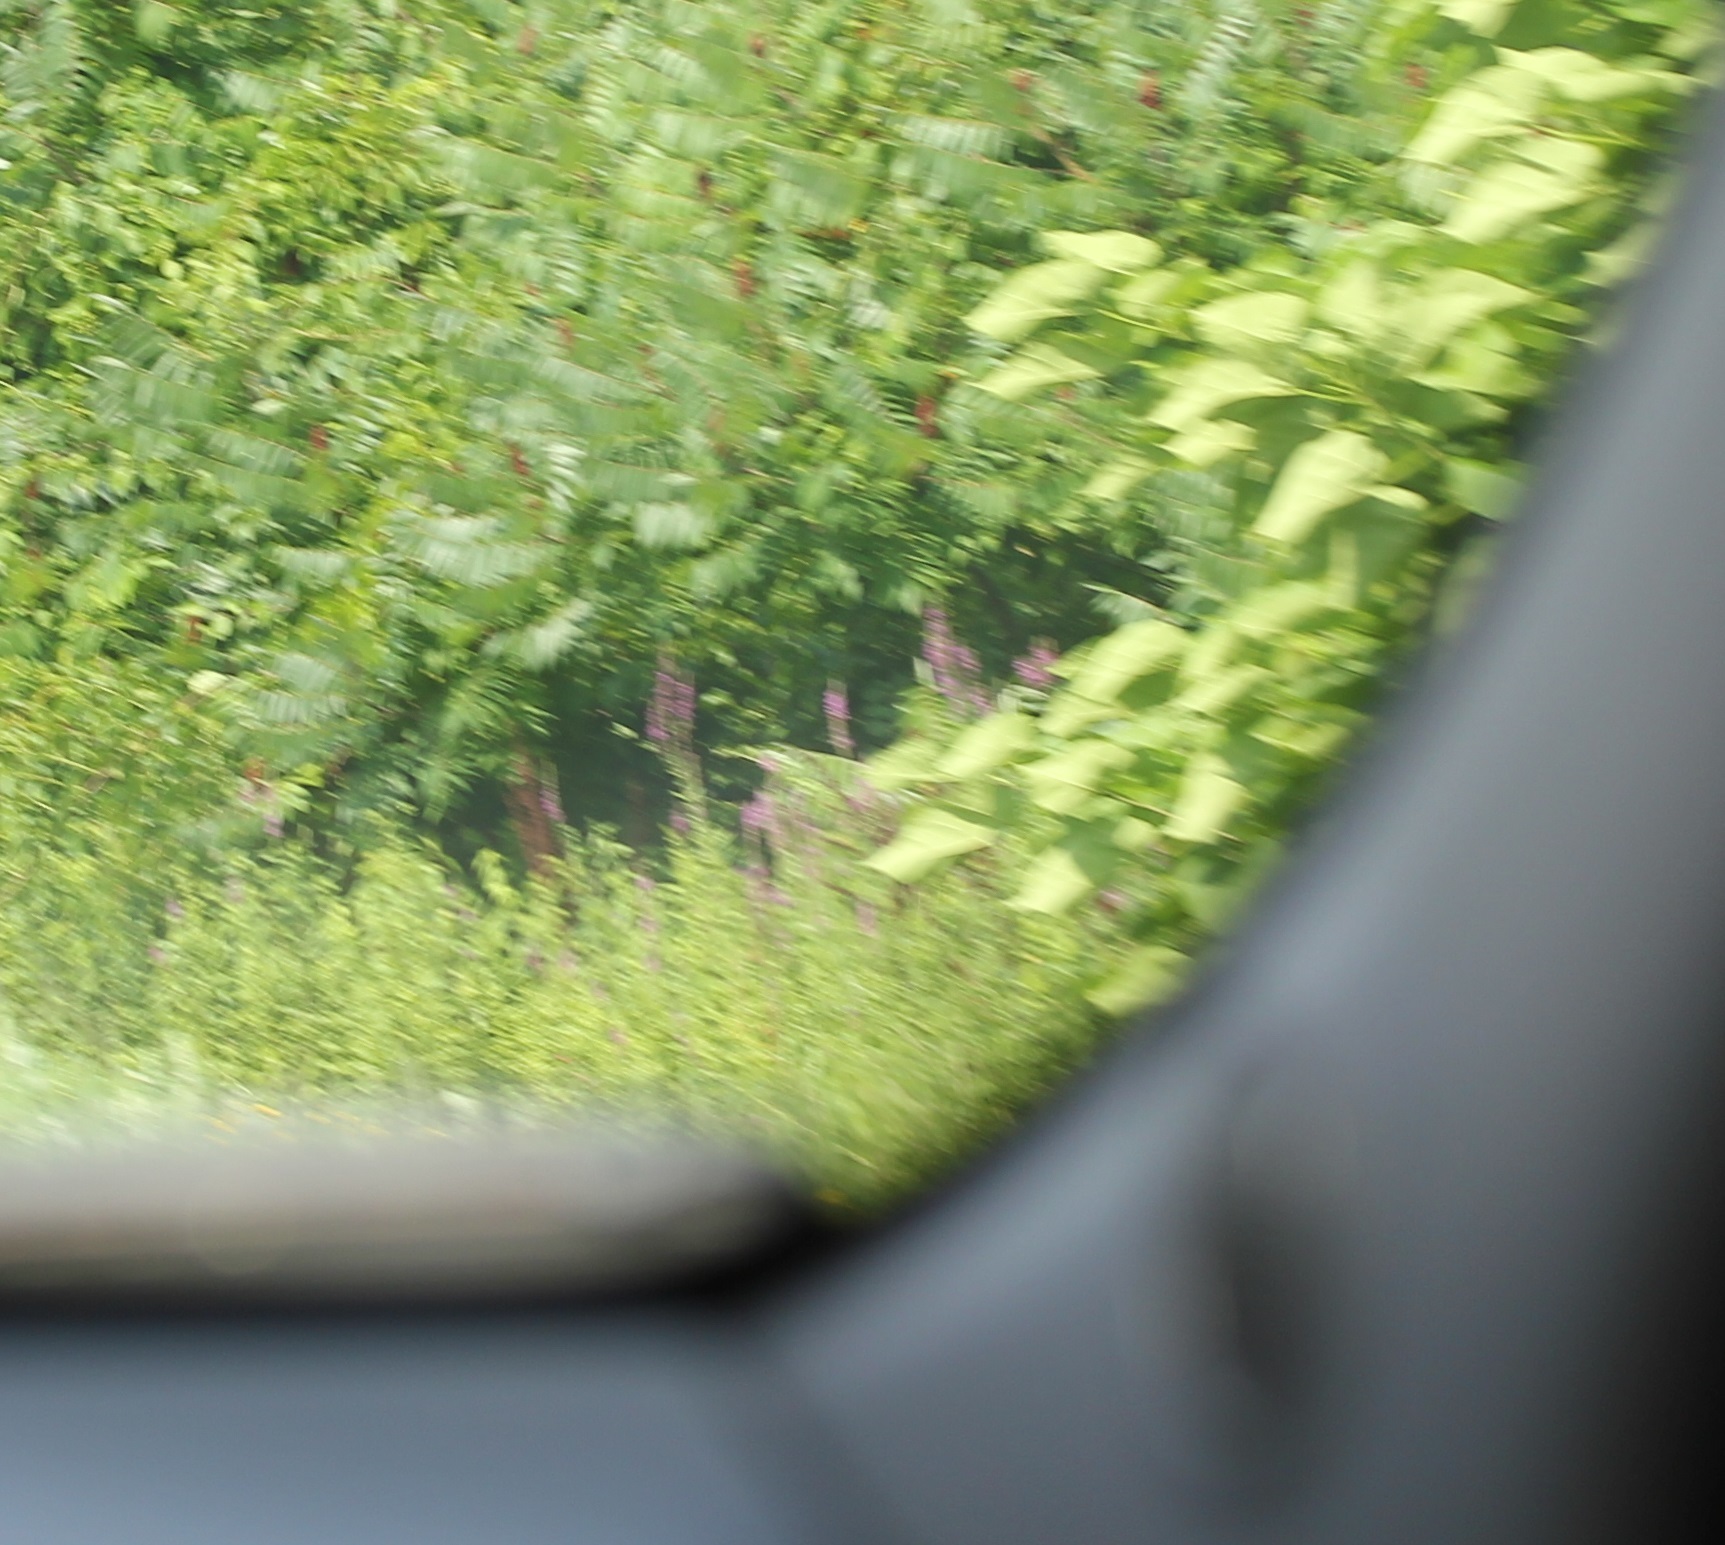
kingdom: Plantae
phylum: Tracheophyta
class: Magnoliopsida
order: Myrtales
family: Lythraceae
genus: Lythrum
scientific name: Lythrum salicaria
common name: Purple loosestrife
